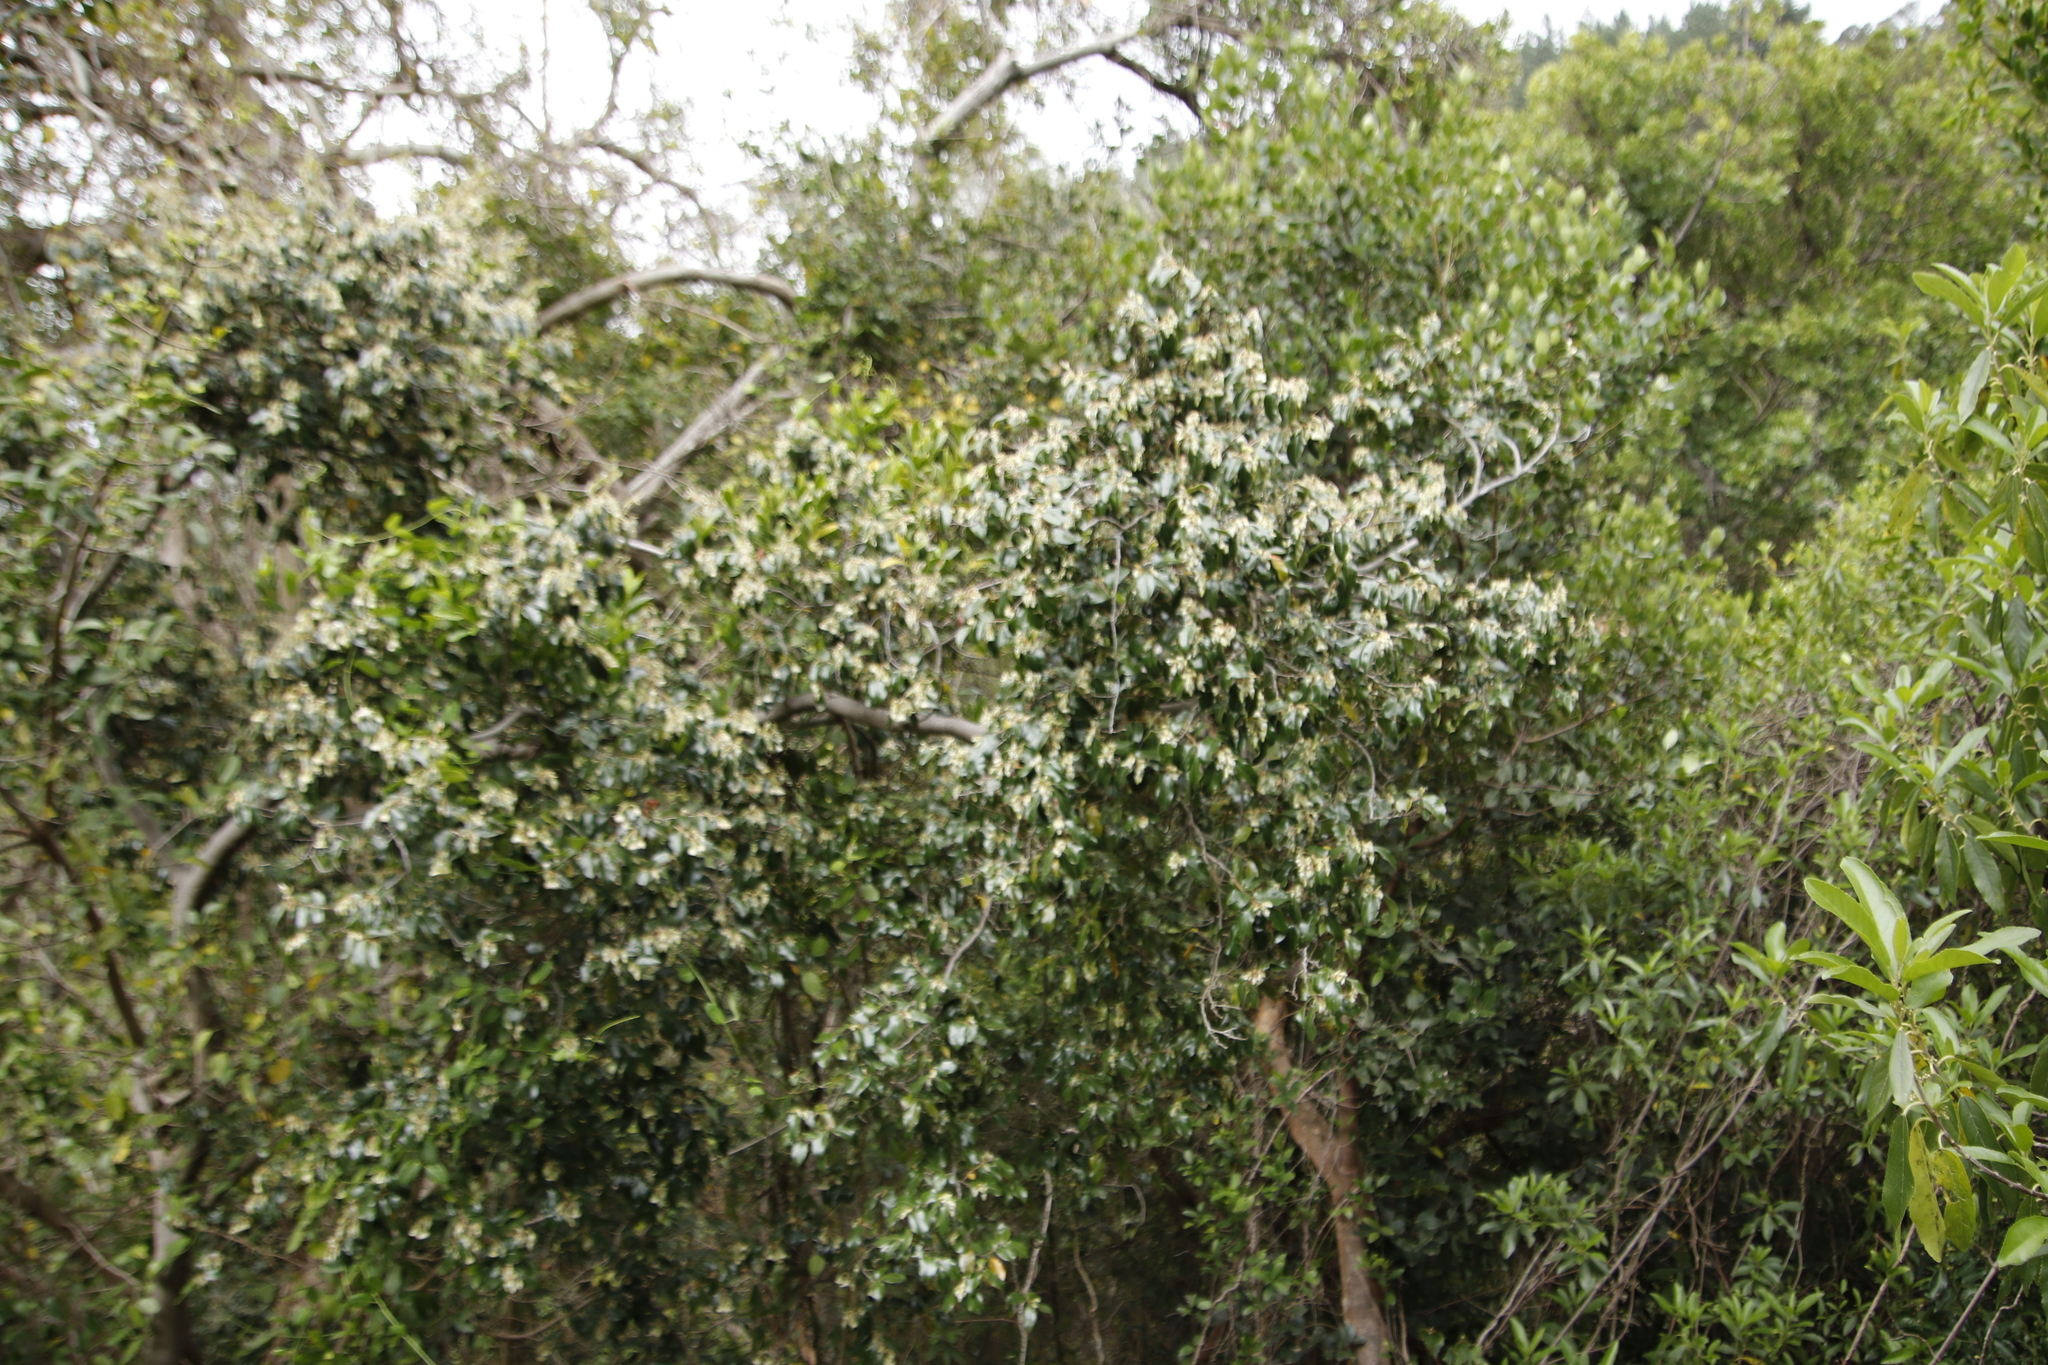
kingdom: Plantae
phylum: Tracheophyta
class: Magnoliopsida
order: Ericales
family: Ebenaceae
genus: Diospyros
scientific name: Diospyros whyteana
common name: Bladder-nut
